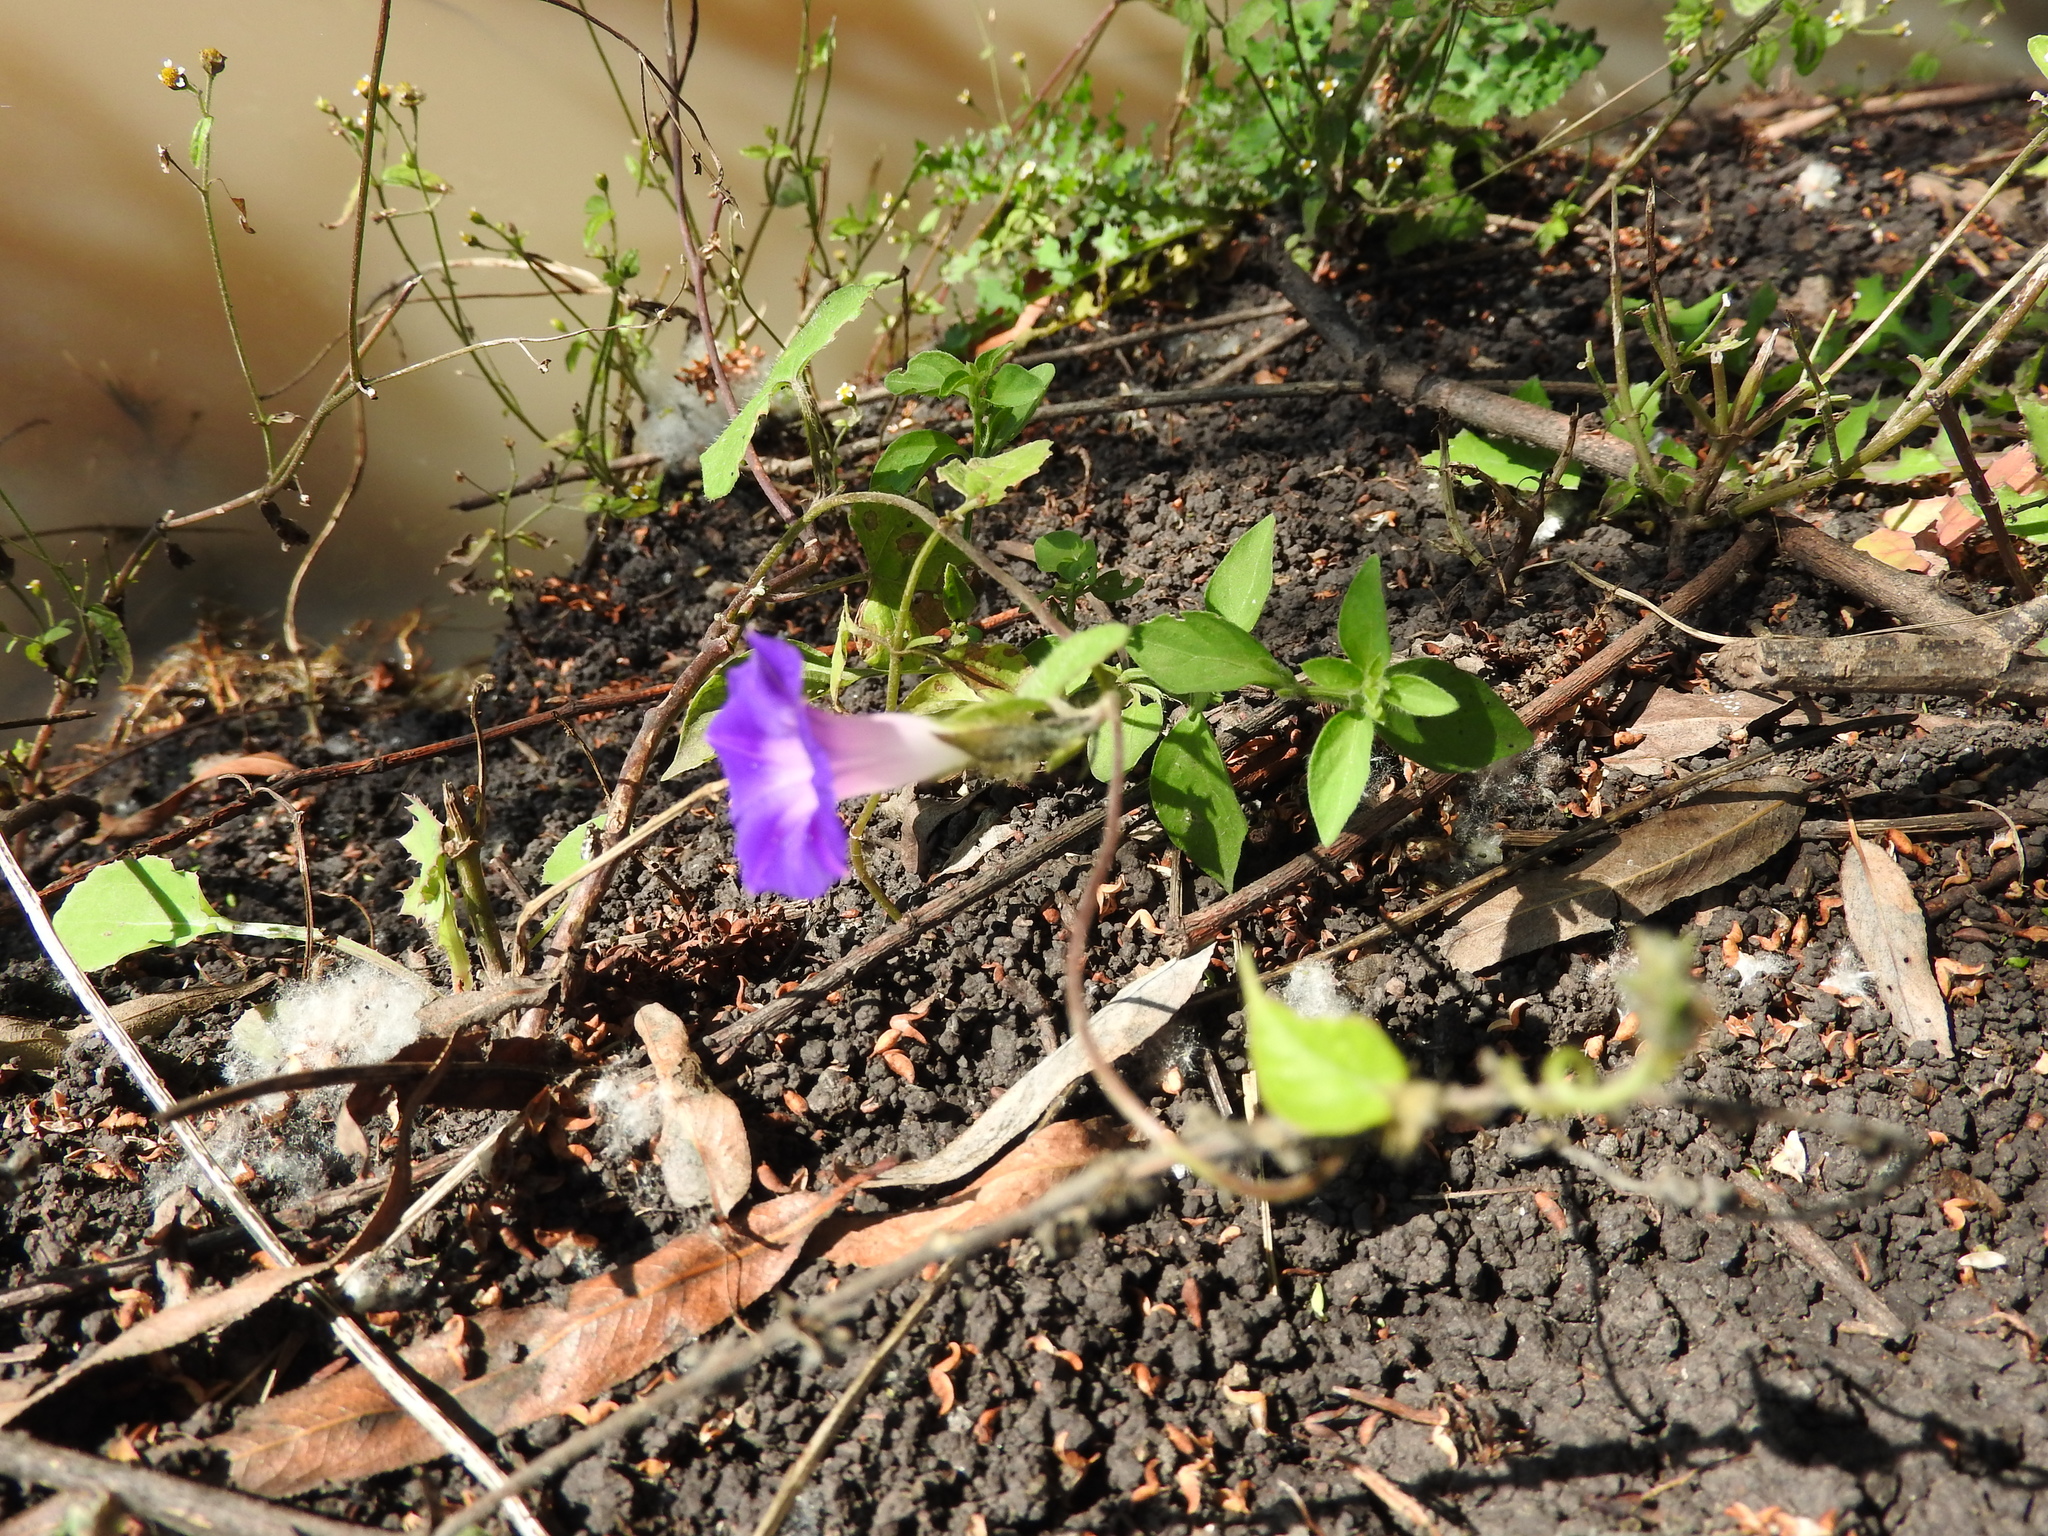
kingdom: Plantae
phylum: Tracheophyta
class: Magnoliopsida
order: Solanales
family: Convolvulaceae
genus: Ipomoea
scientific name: Ipomoea purpurea
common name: Common morning-glory
